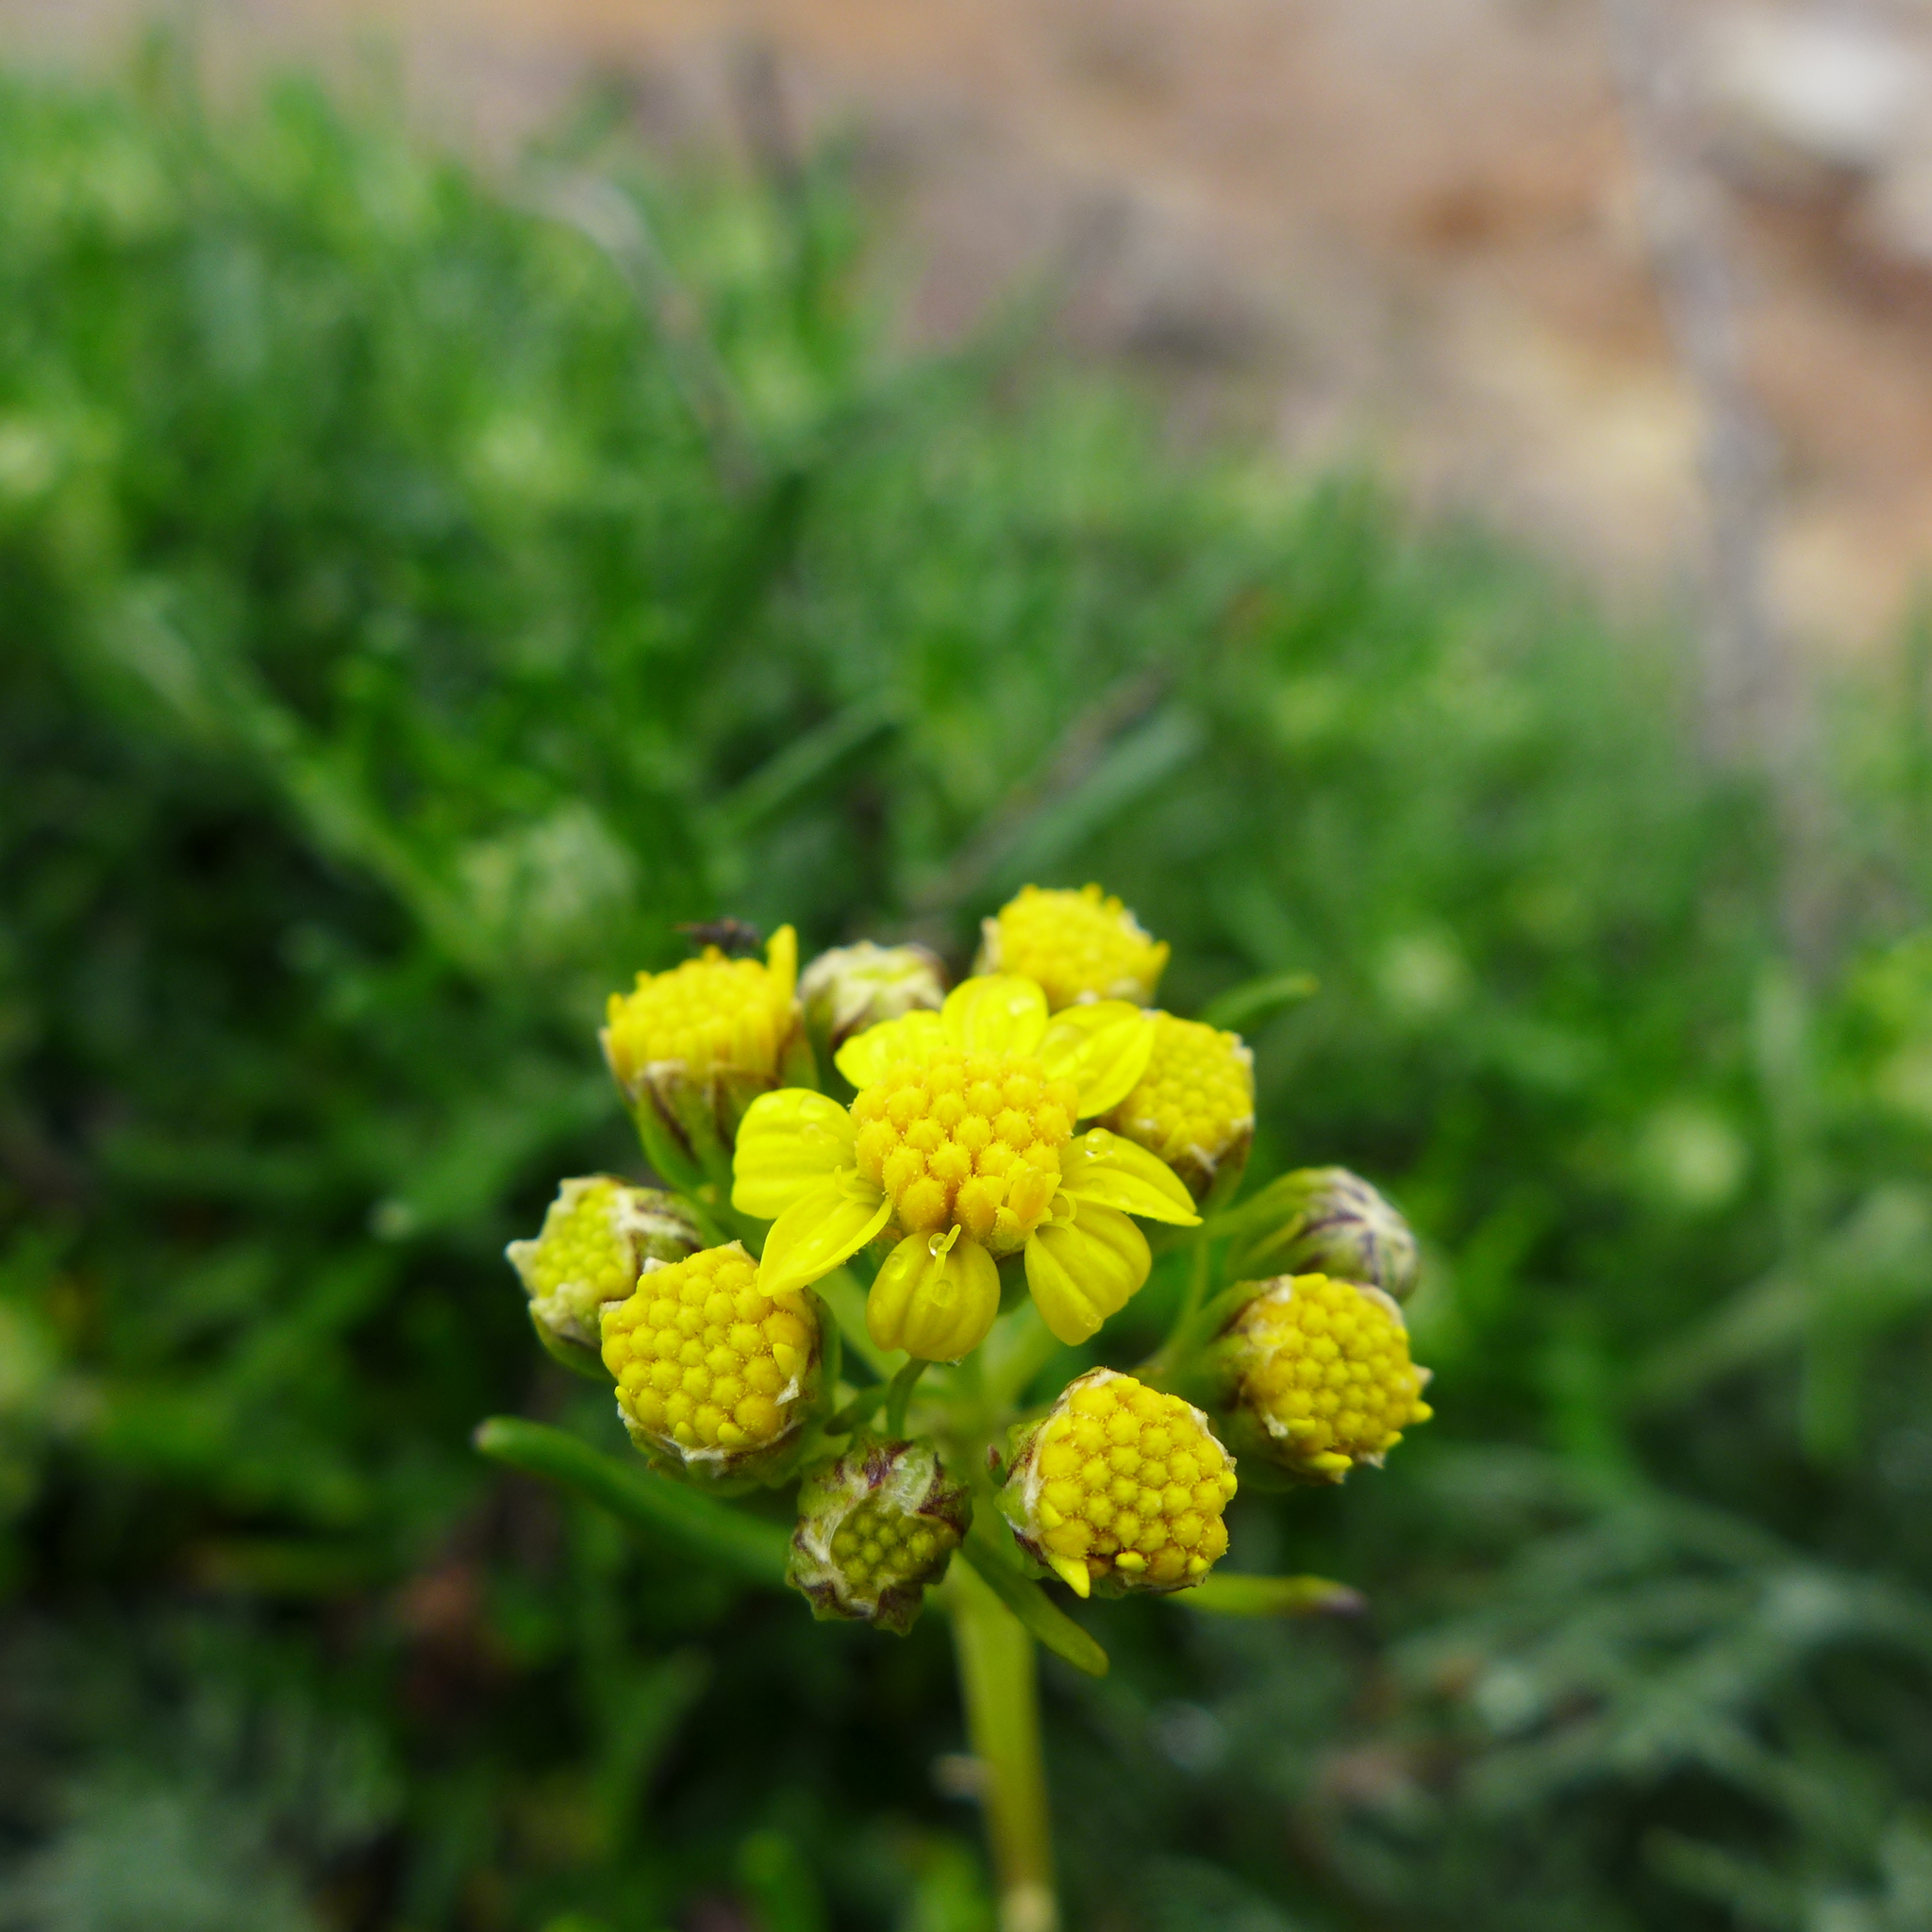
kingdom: Plantae
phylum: Tracheophyta
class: Magnoliopsida
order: Asterales
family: Asteraceae
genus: Eriophyllum
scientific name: Eriophyllum staechadifolium
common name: Lizardtail
